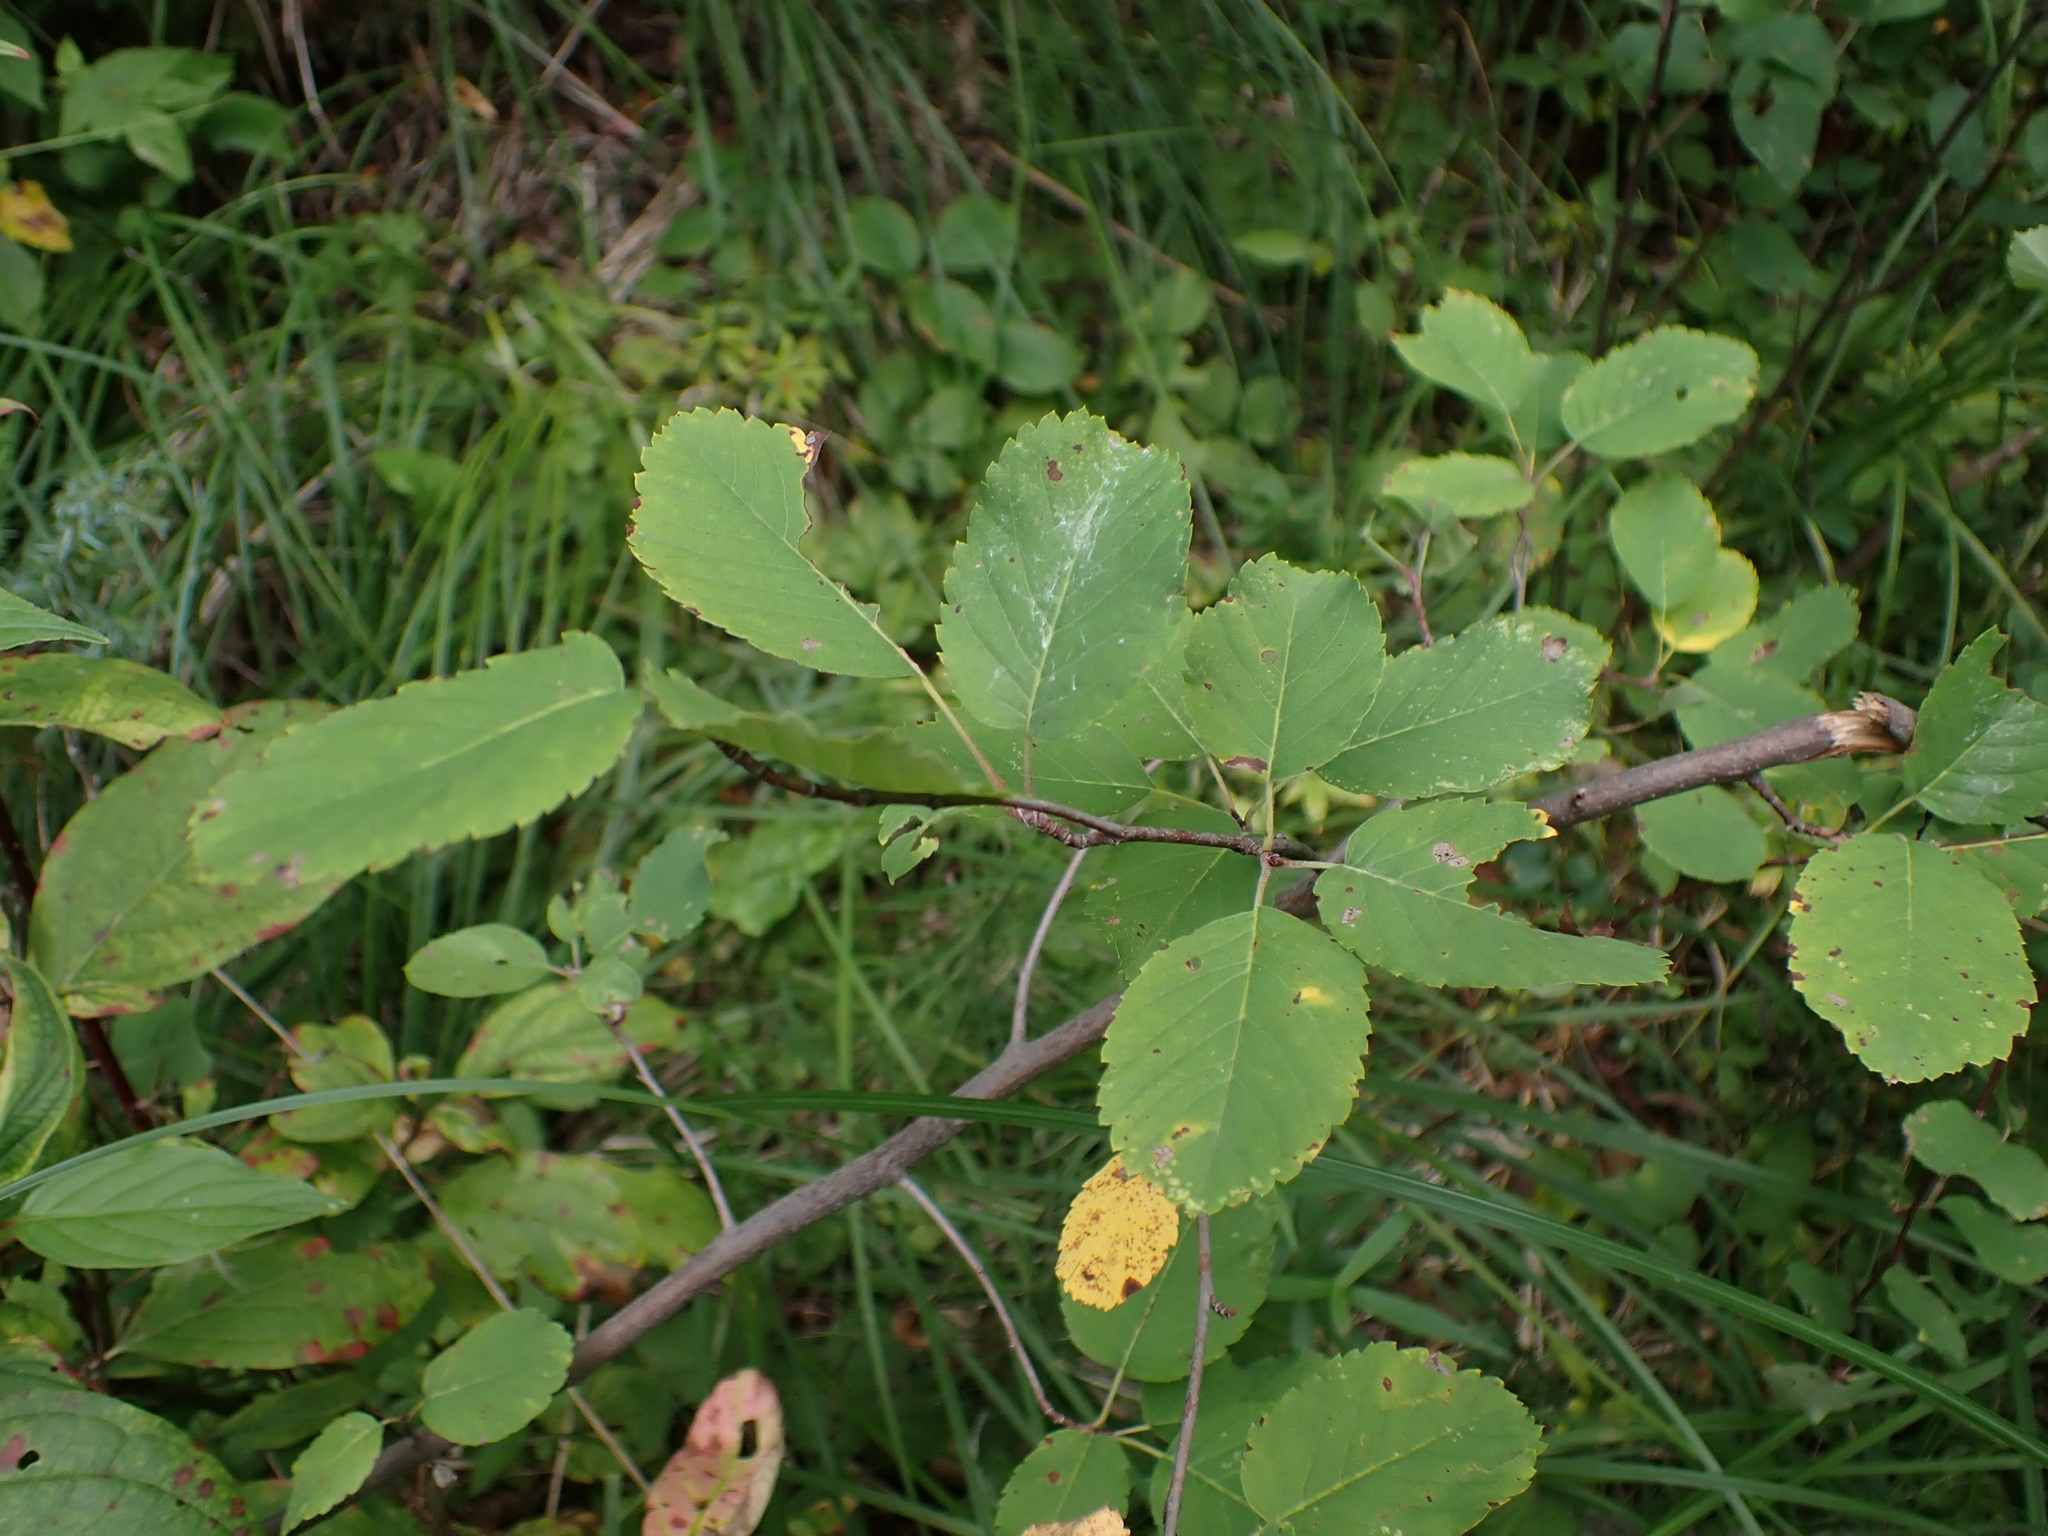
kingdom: Plantae
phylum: Tracheophyta
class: Magnoliopsida
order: Rosales
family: Rosaceae
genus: Amelanchier
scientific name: Amelanchier alnifolia
